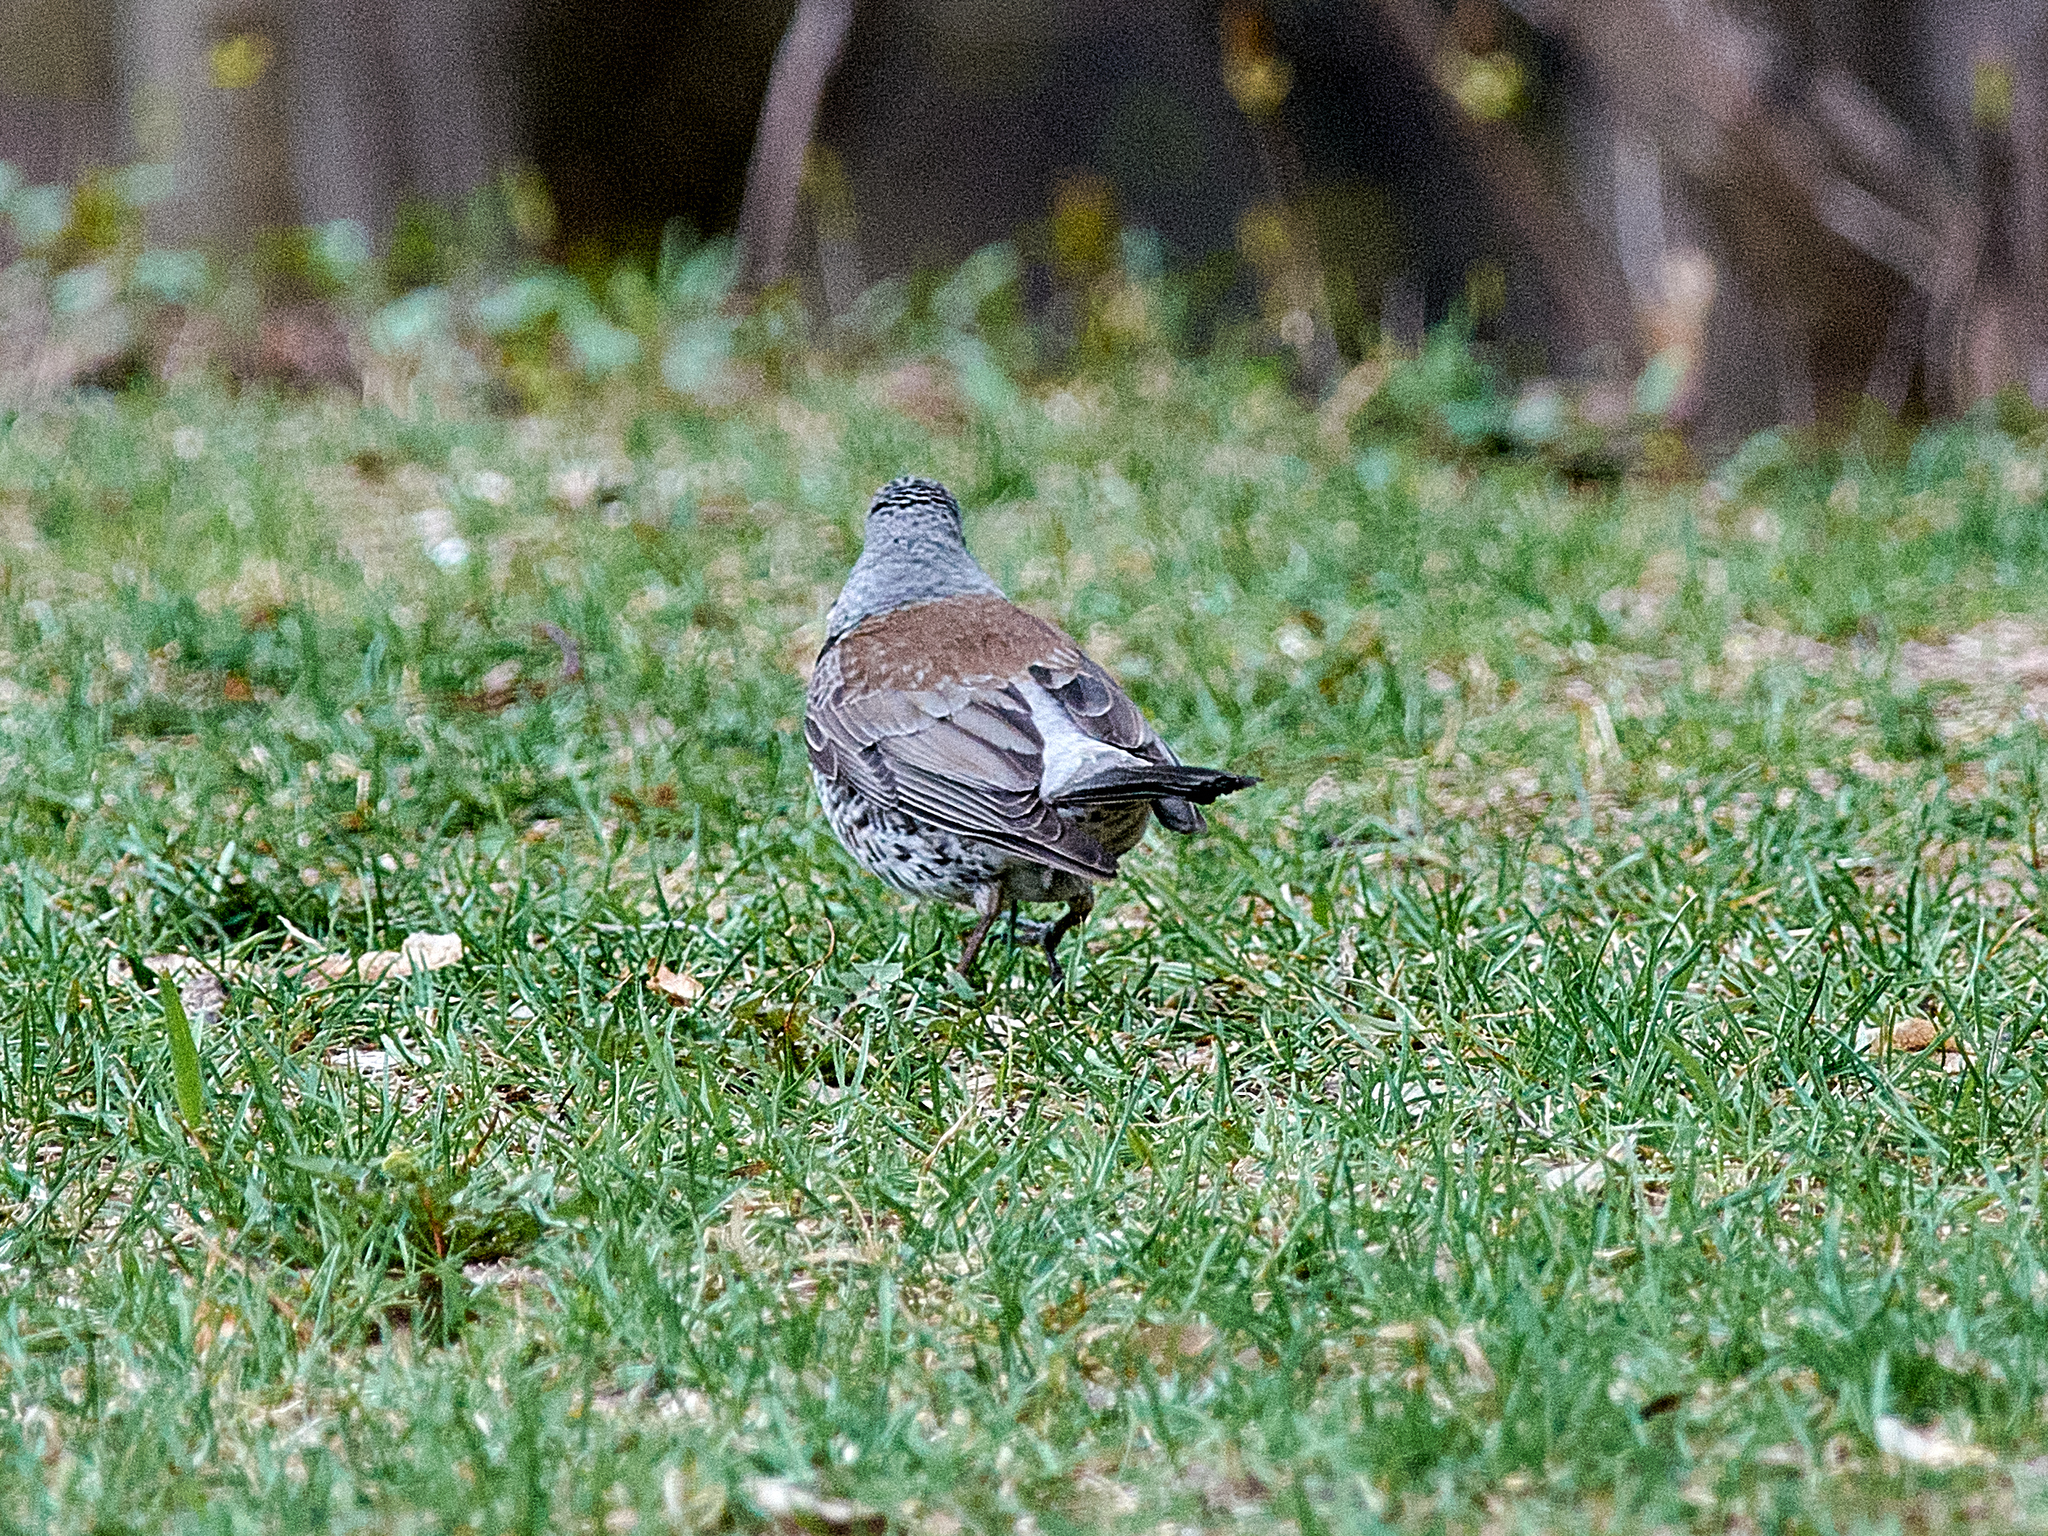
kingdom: Animalia
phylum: Chordata
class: Aves
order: Passeriformes
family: Turdidae
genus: Turdus
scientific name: Turdus pilaris
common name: Fieldfare
